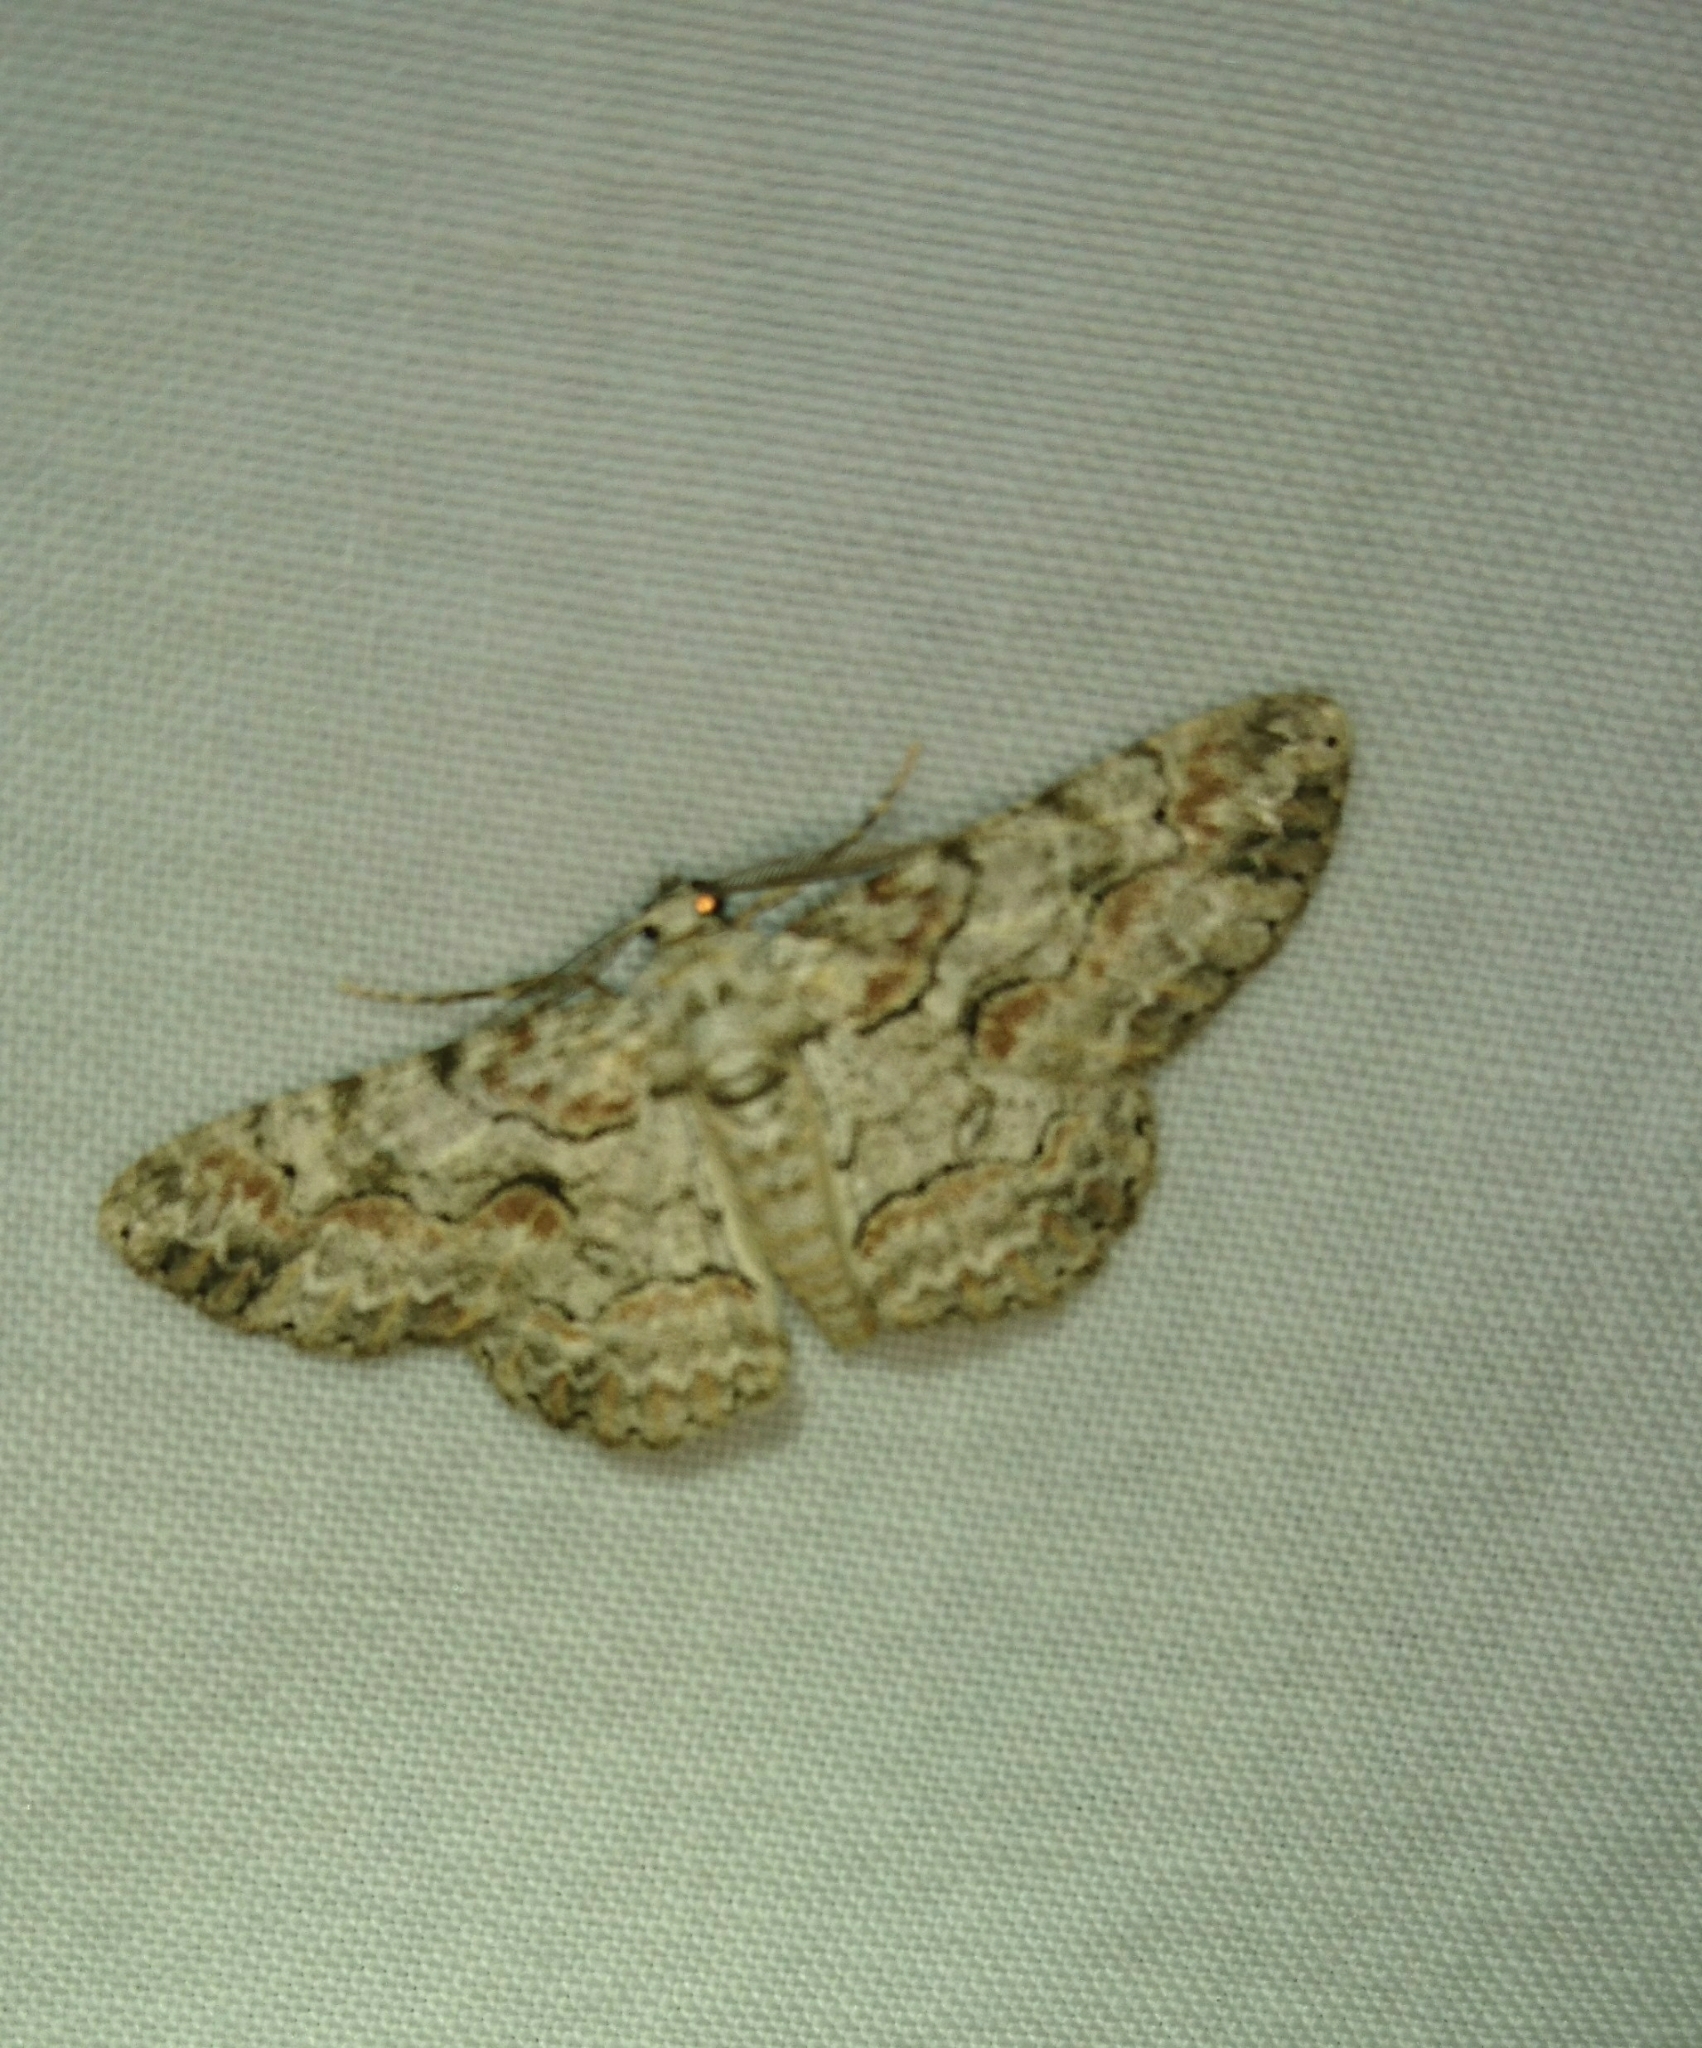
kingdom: Animalia
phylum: Arthropoda
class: Insecta
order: Lepidoptera
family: Geometridae
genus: Iridopsis
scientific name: Iridopsis defectaria
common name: Brown-shaded gray
